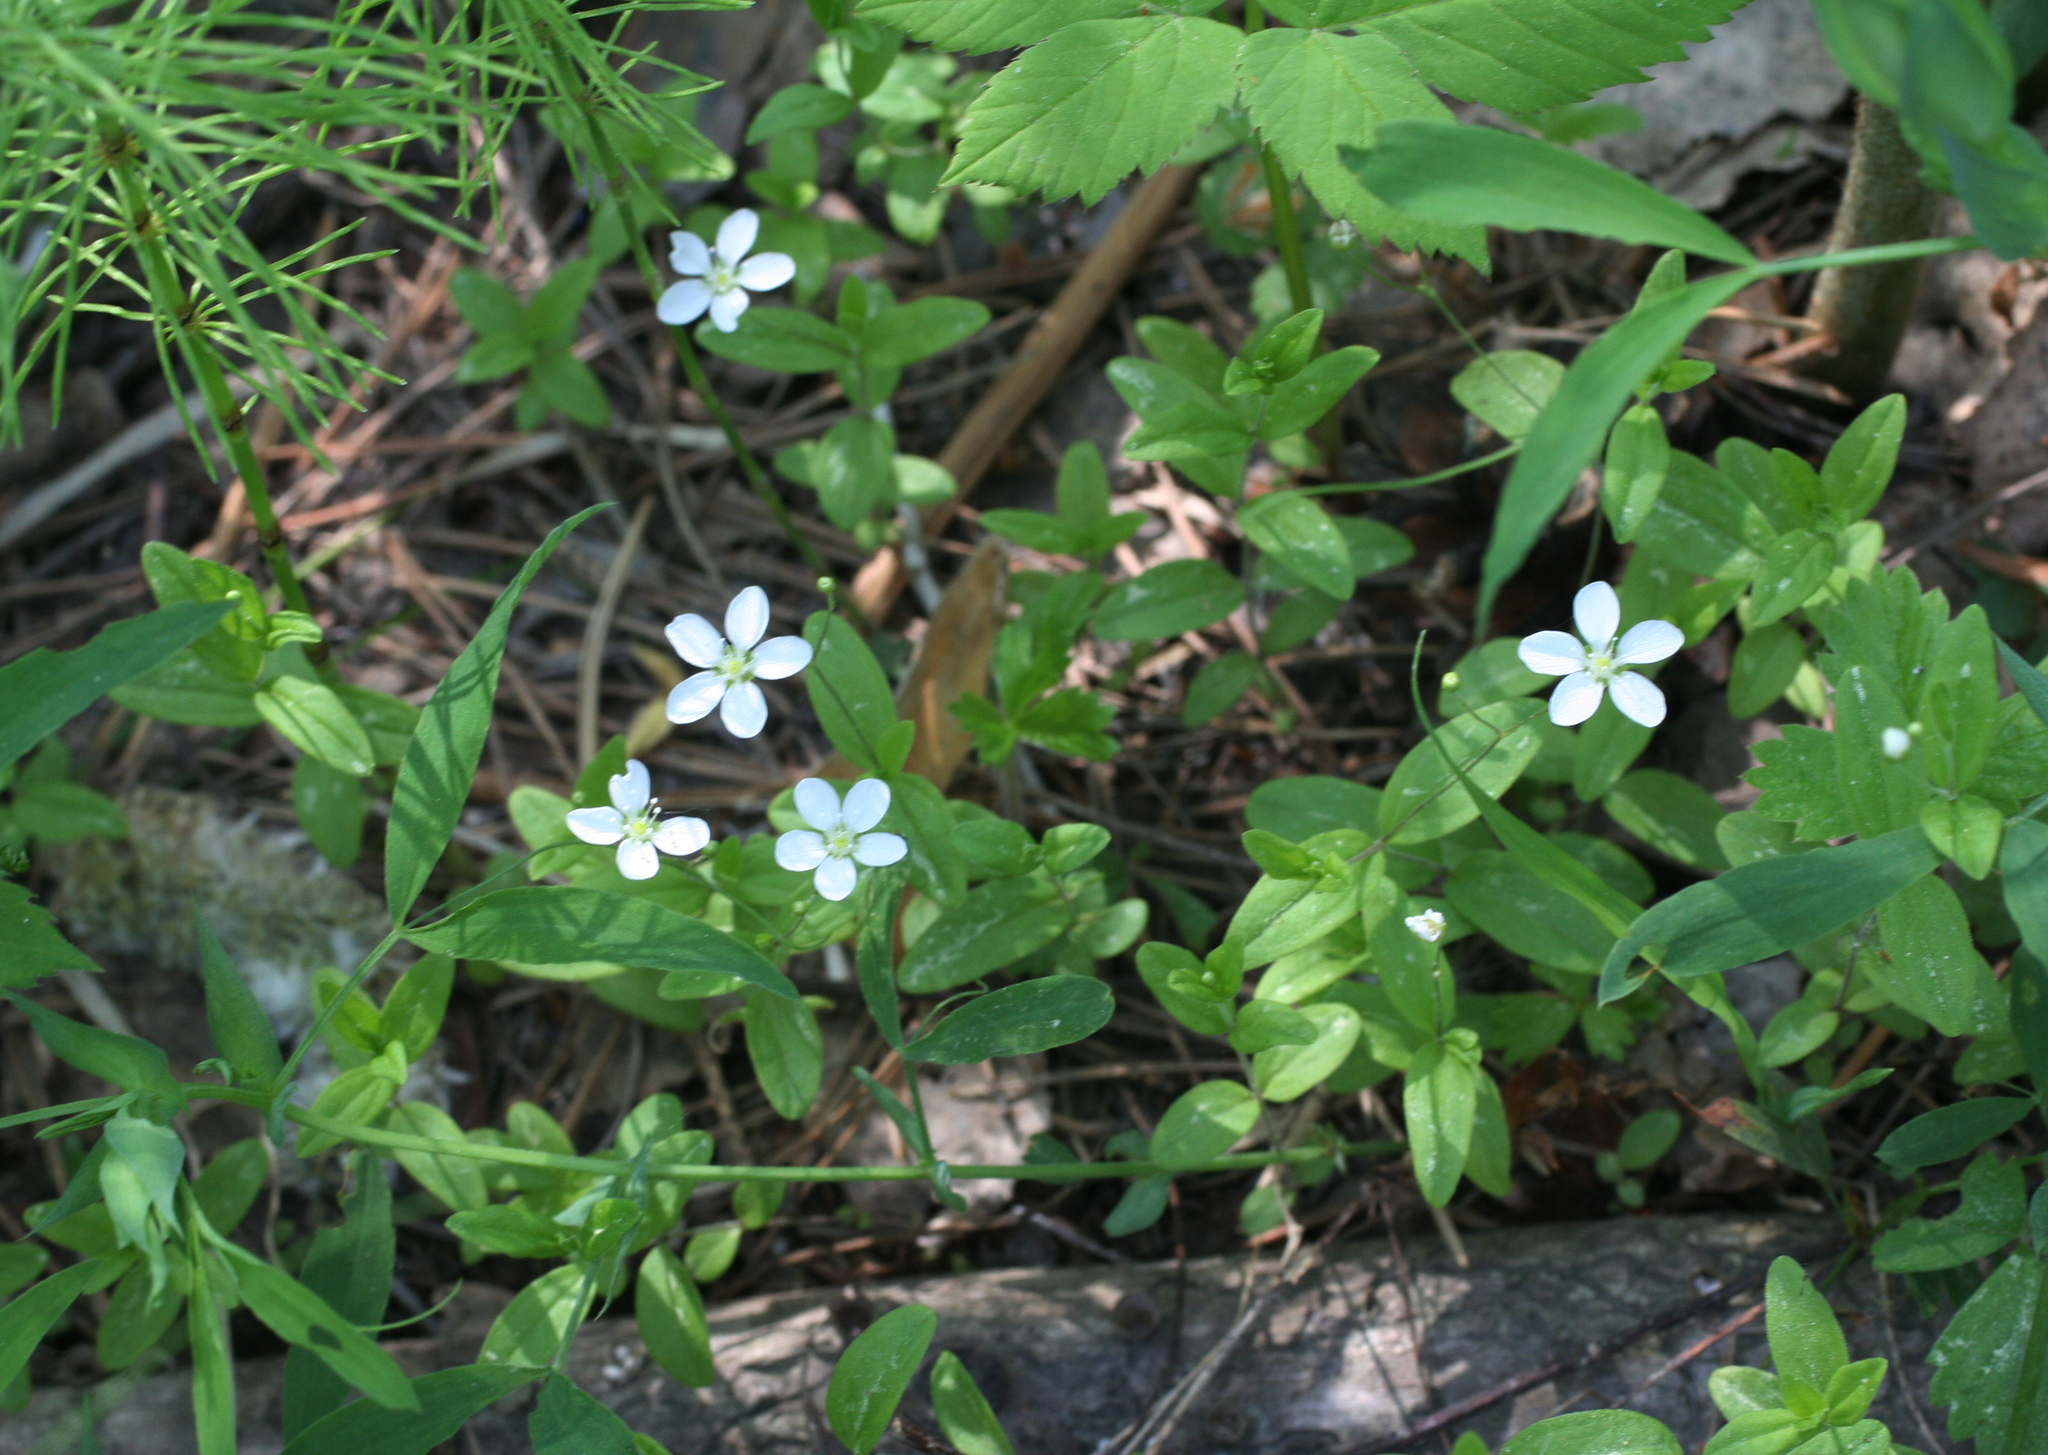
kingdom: Plantae
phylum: Tracheophyta
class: Magnoliopsida
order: Caryophyllales
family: Caryophyllaceae
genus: Moehringia
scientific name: Moehringia lateriflora
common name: Blunt-leaved sandwort
